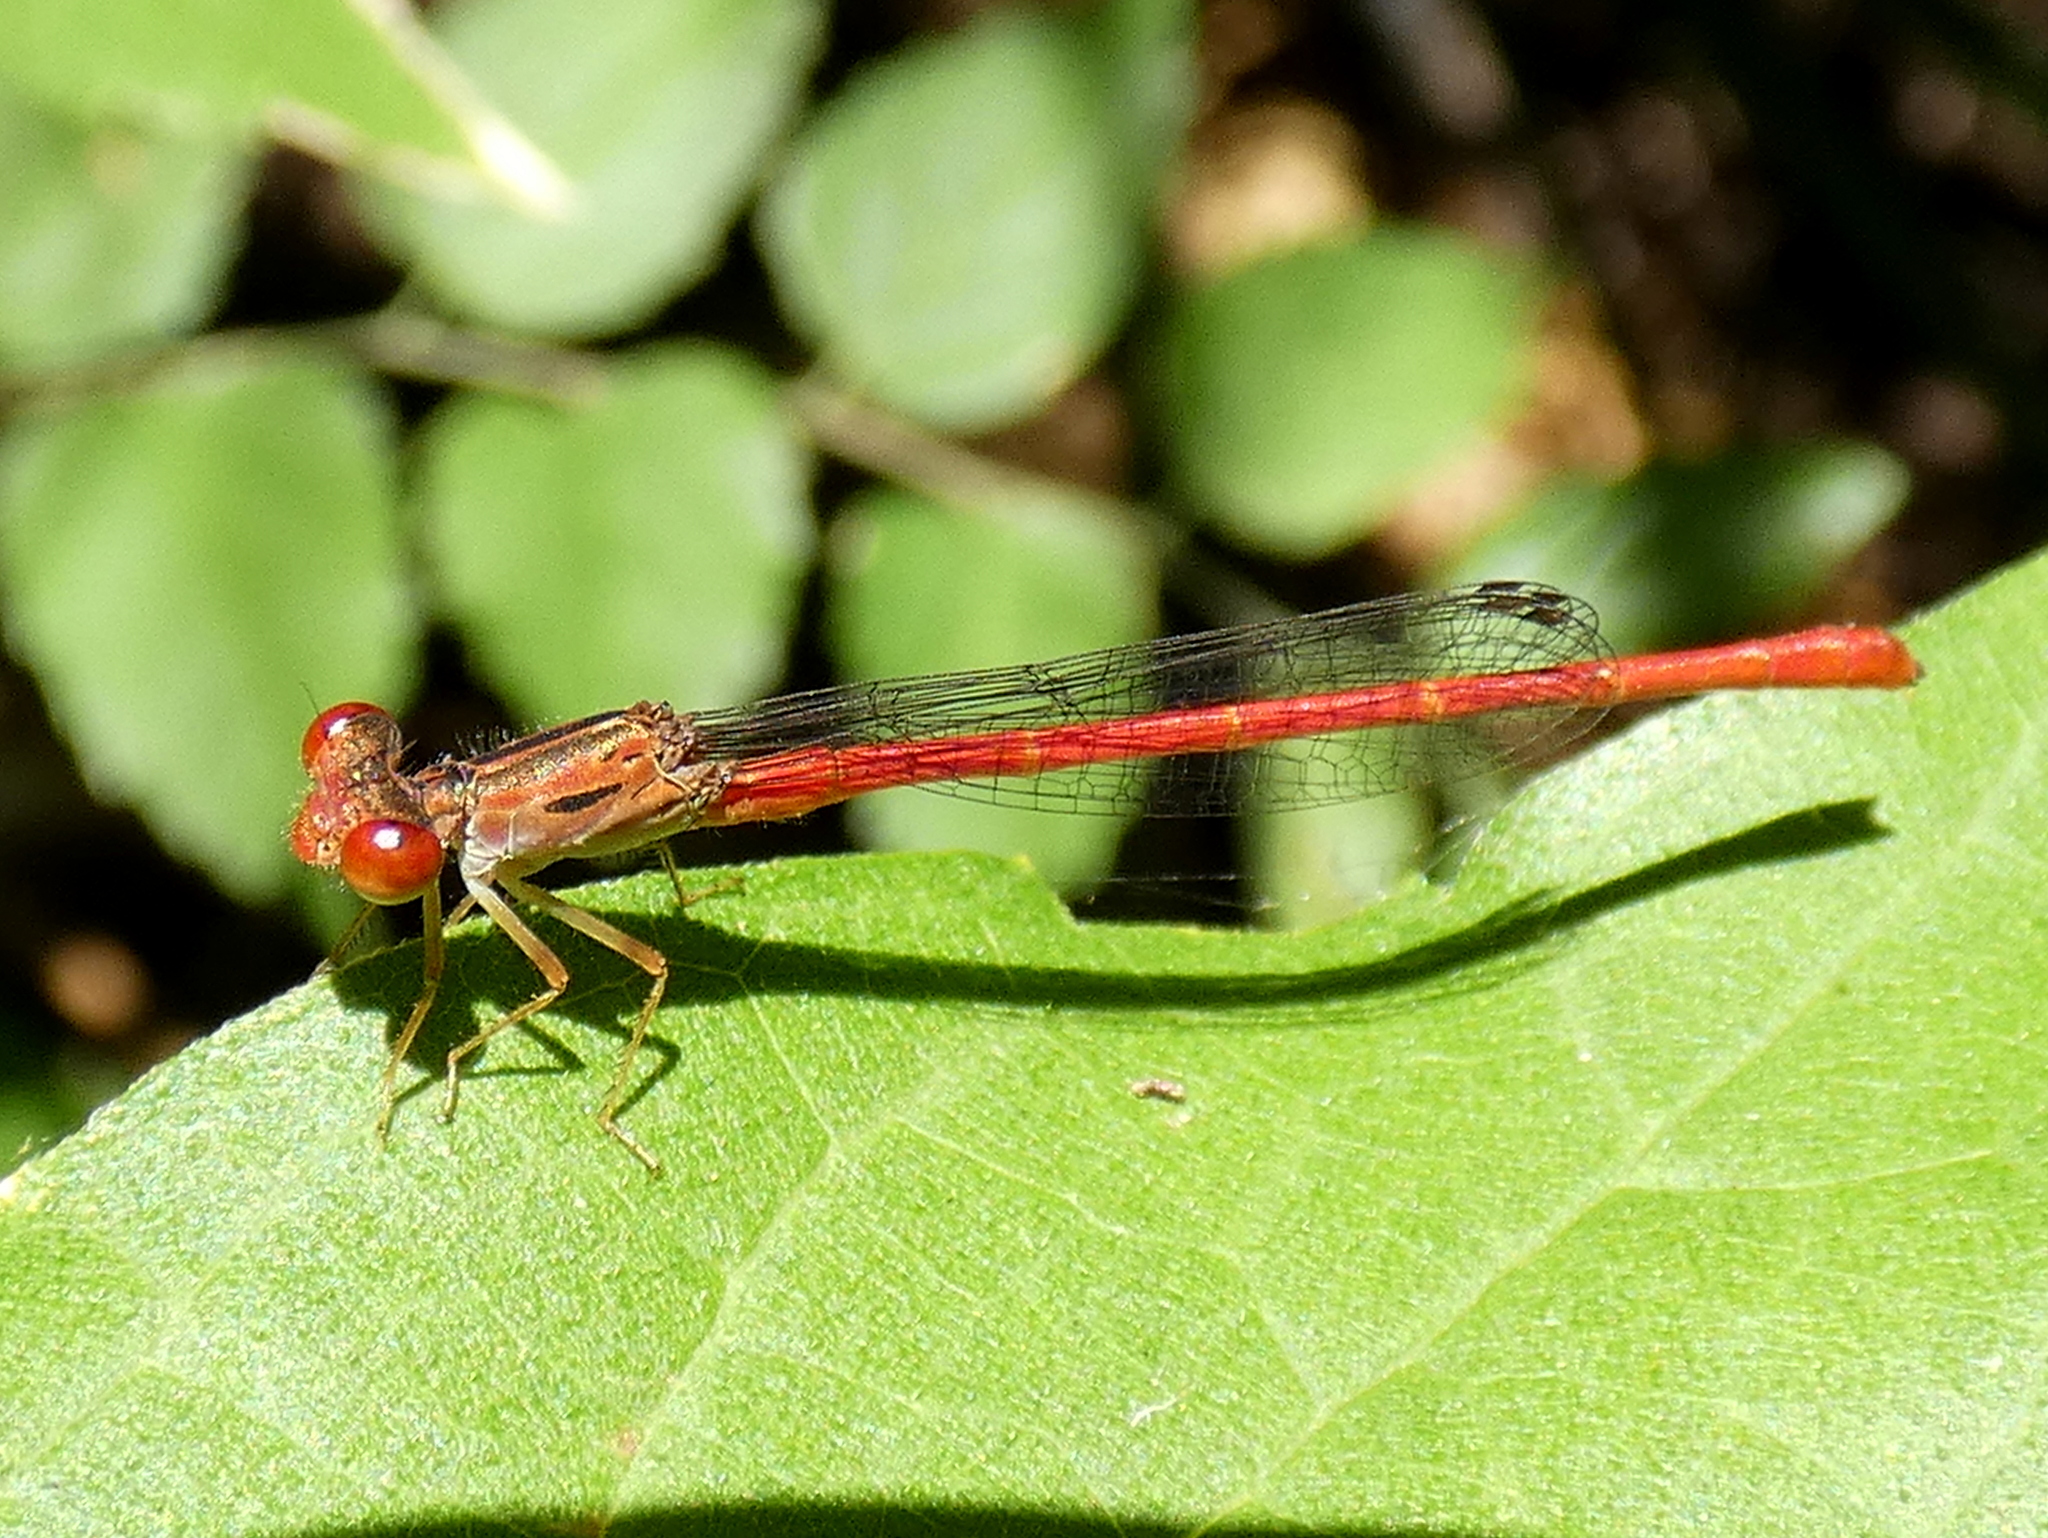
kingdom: Animalia
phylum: Arthropoda
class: Insecta
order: Odonata
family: Coenagrionidae
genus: Telebasis
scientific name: Telebasis byersi
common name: Duckweed firetail
